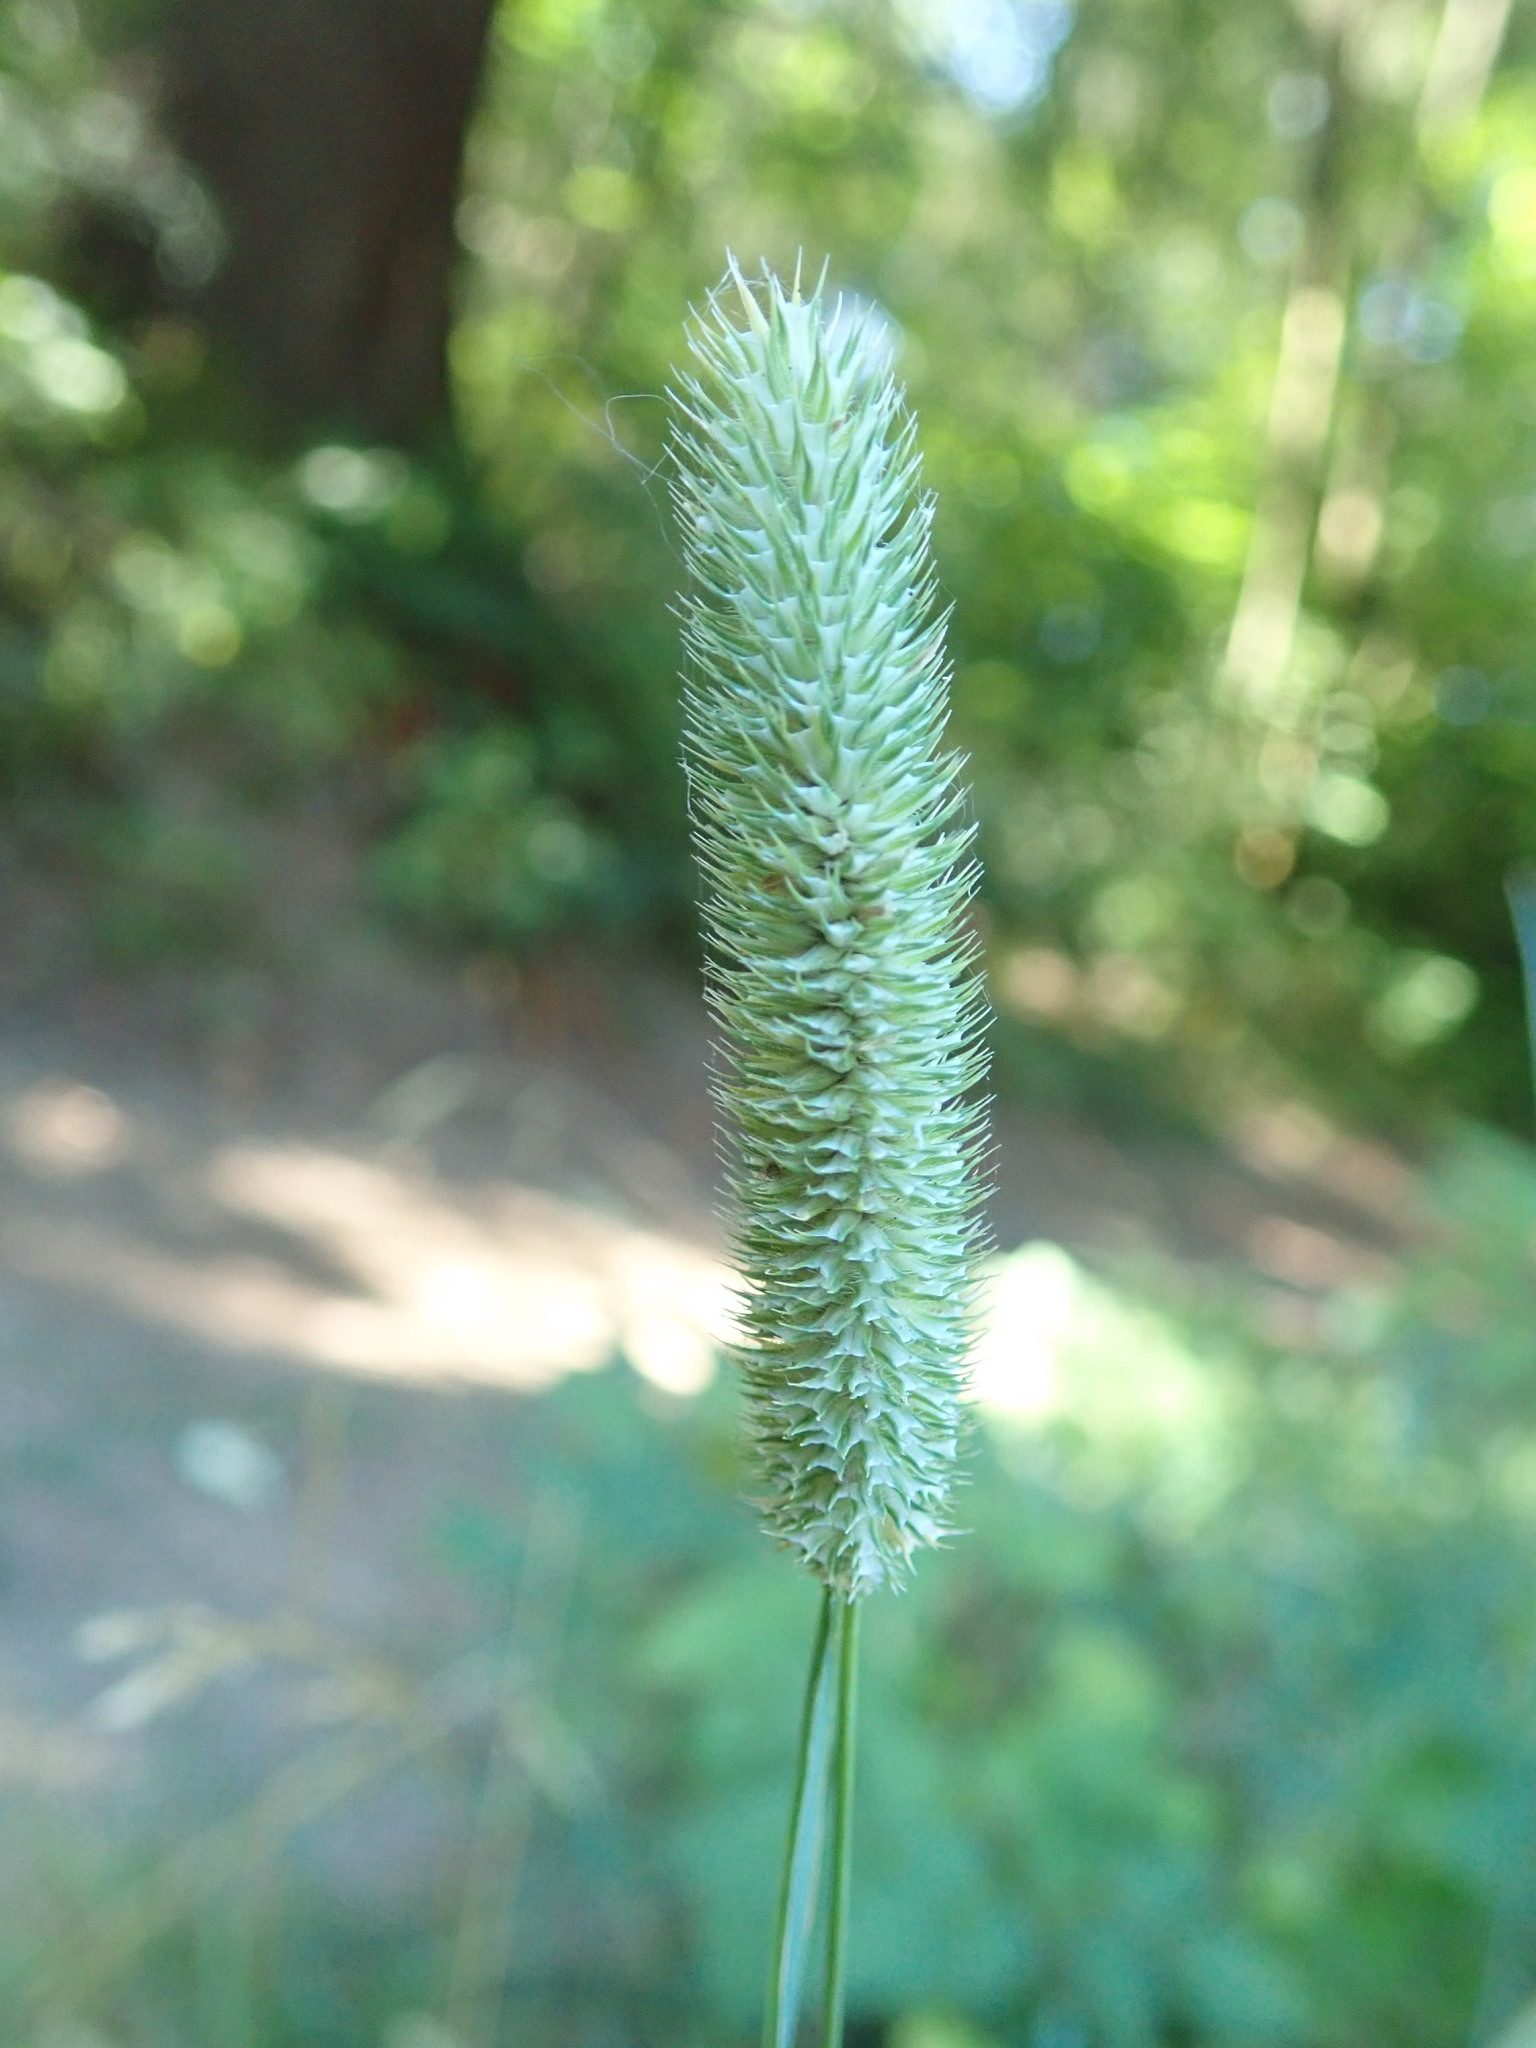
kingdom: Plantae
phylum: Tracheophyta
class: Liliopsida
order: Poales
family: Poaceae
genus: Phleum
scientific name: Phleum pratense
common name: Timothy grass
